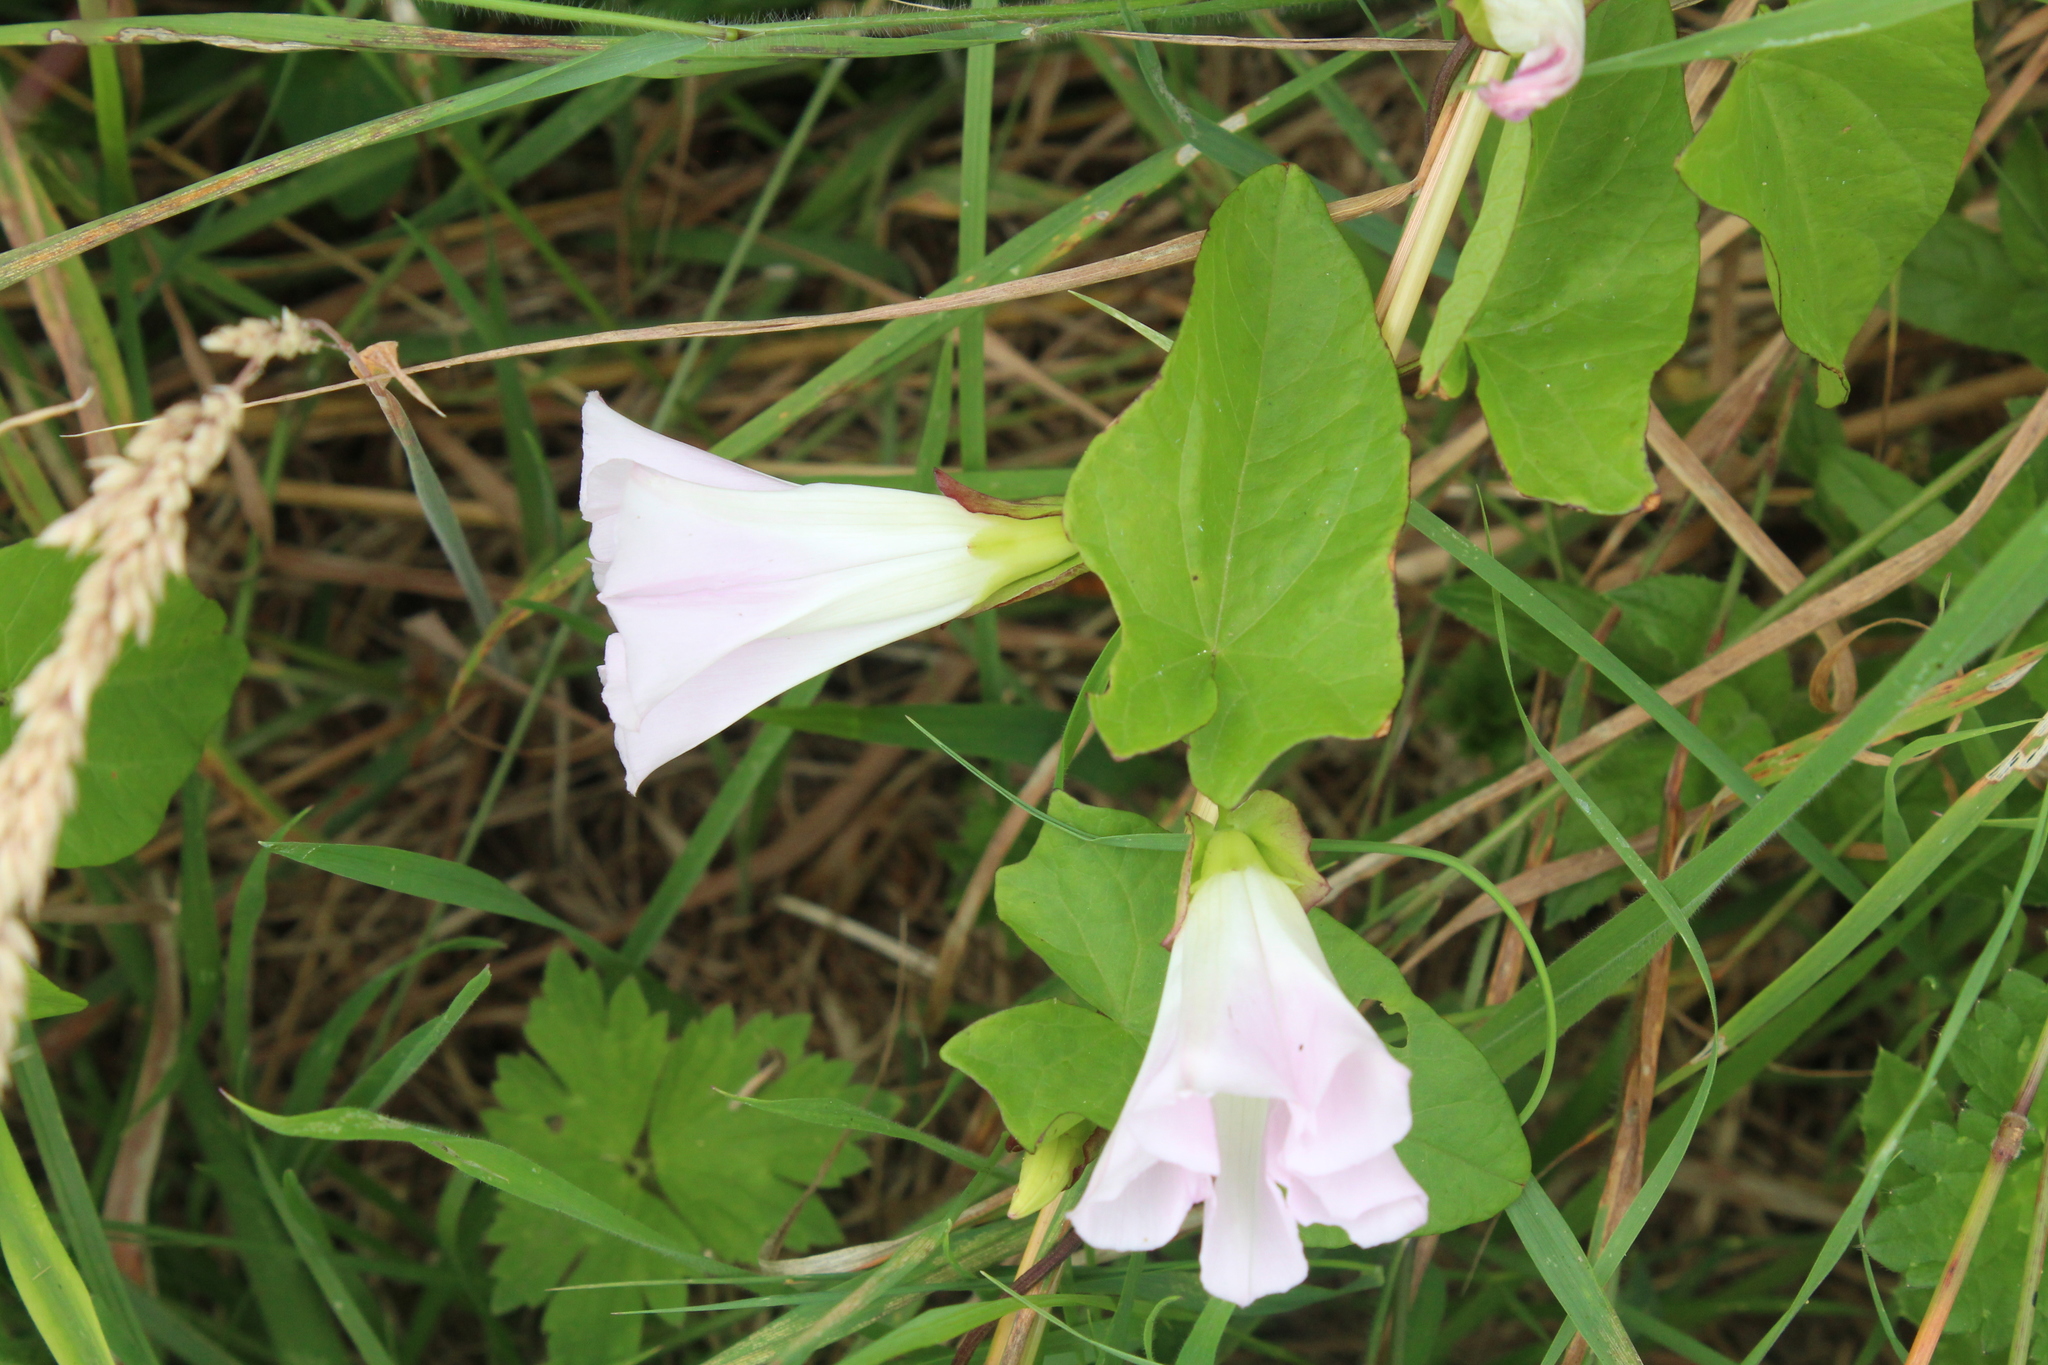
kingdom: Plantae
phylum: Tracheophyta
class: Magnoliopsida
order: Solanales
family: Convolvulaceae
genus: Calystegia
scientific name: Calystegia sepium
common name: Hedge bindweed
